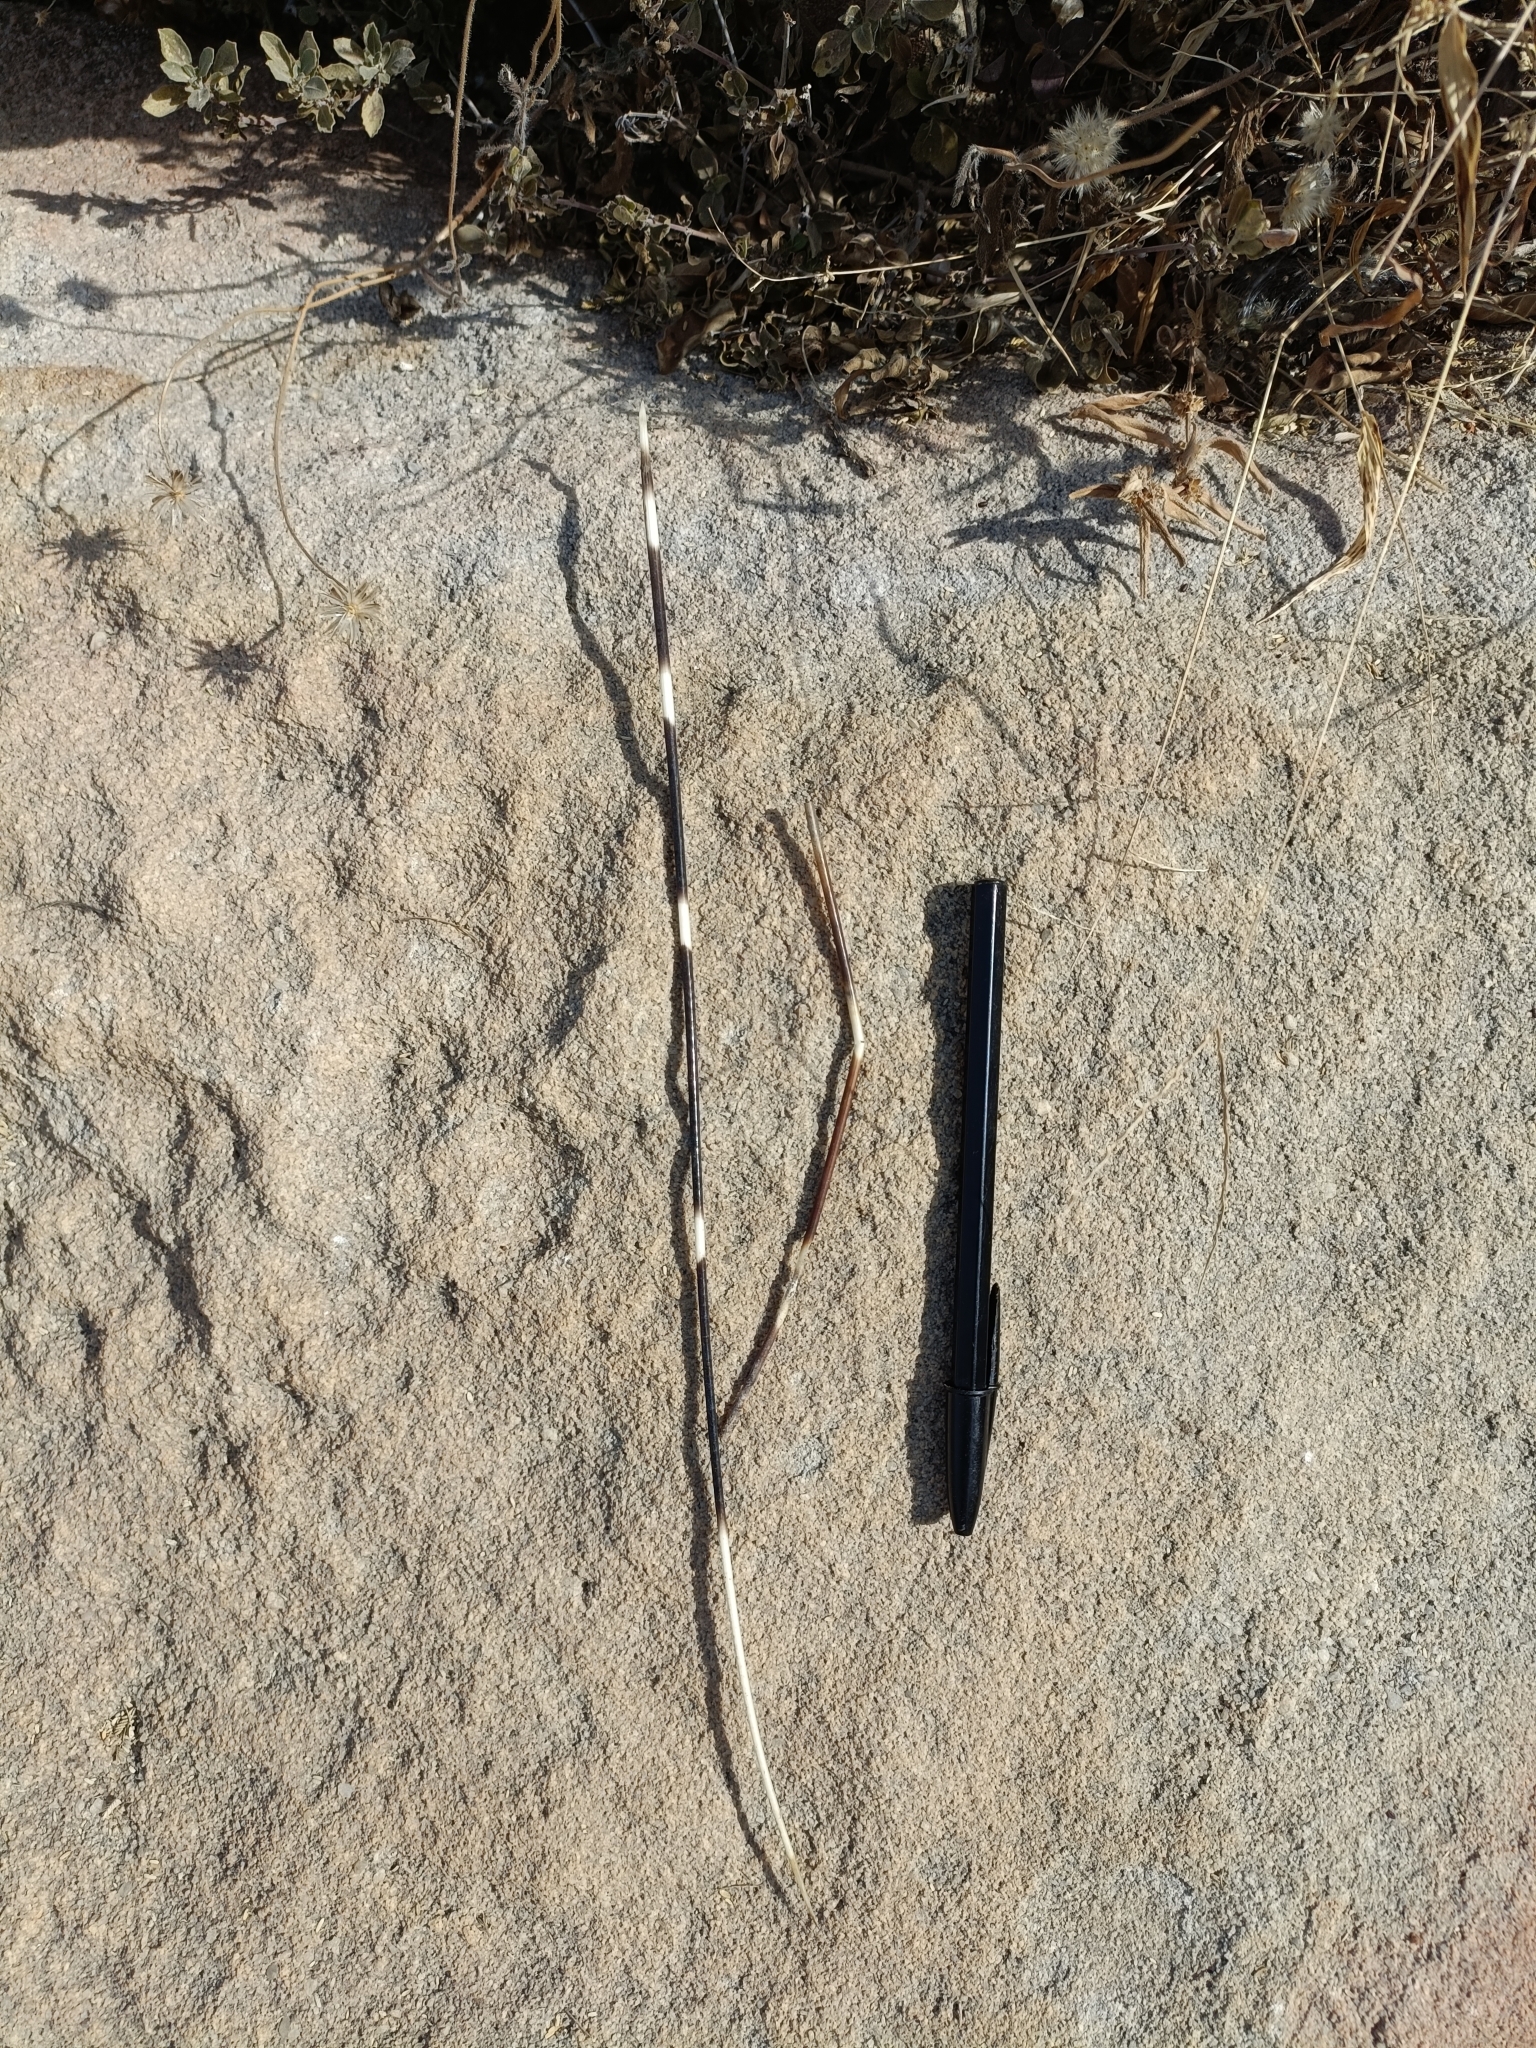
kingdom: Animalia
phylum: Chordata
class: Mammalia
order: Rodentia
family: Hystricidae
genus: Hystrix
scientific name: Hystrix indica
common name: Indian crested porcupine
